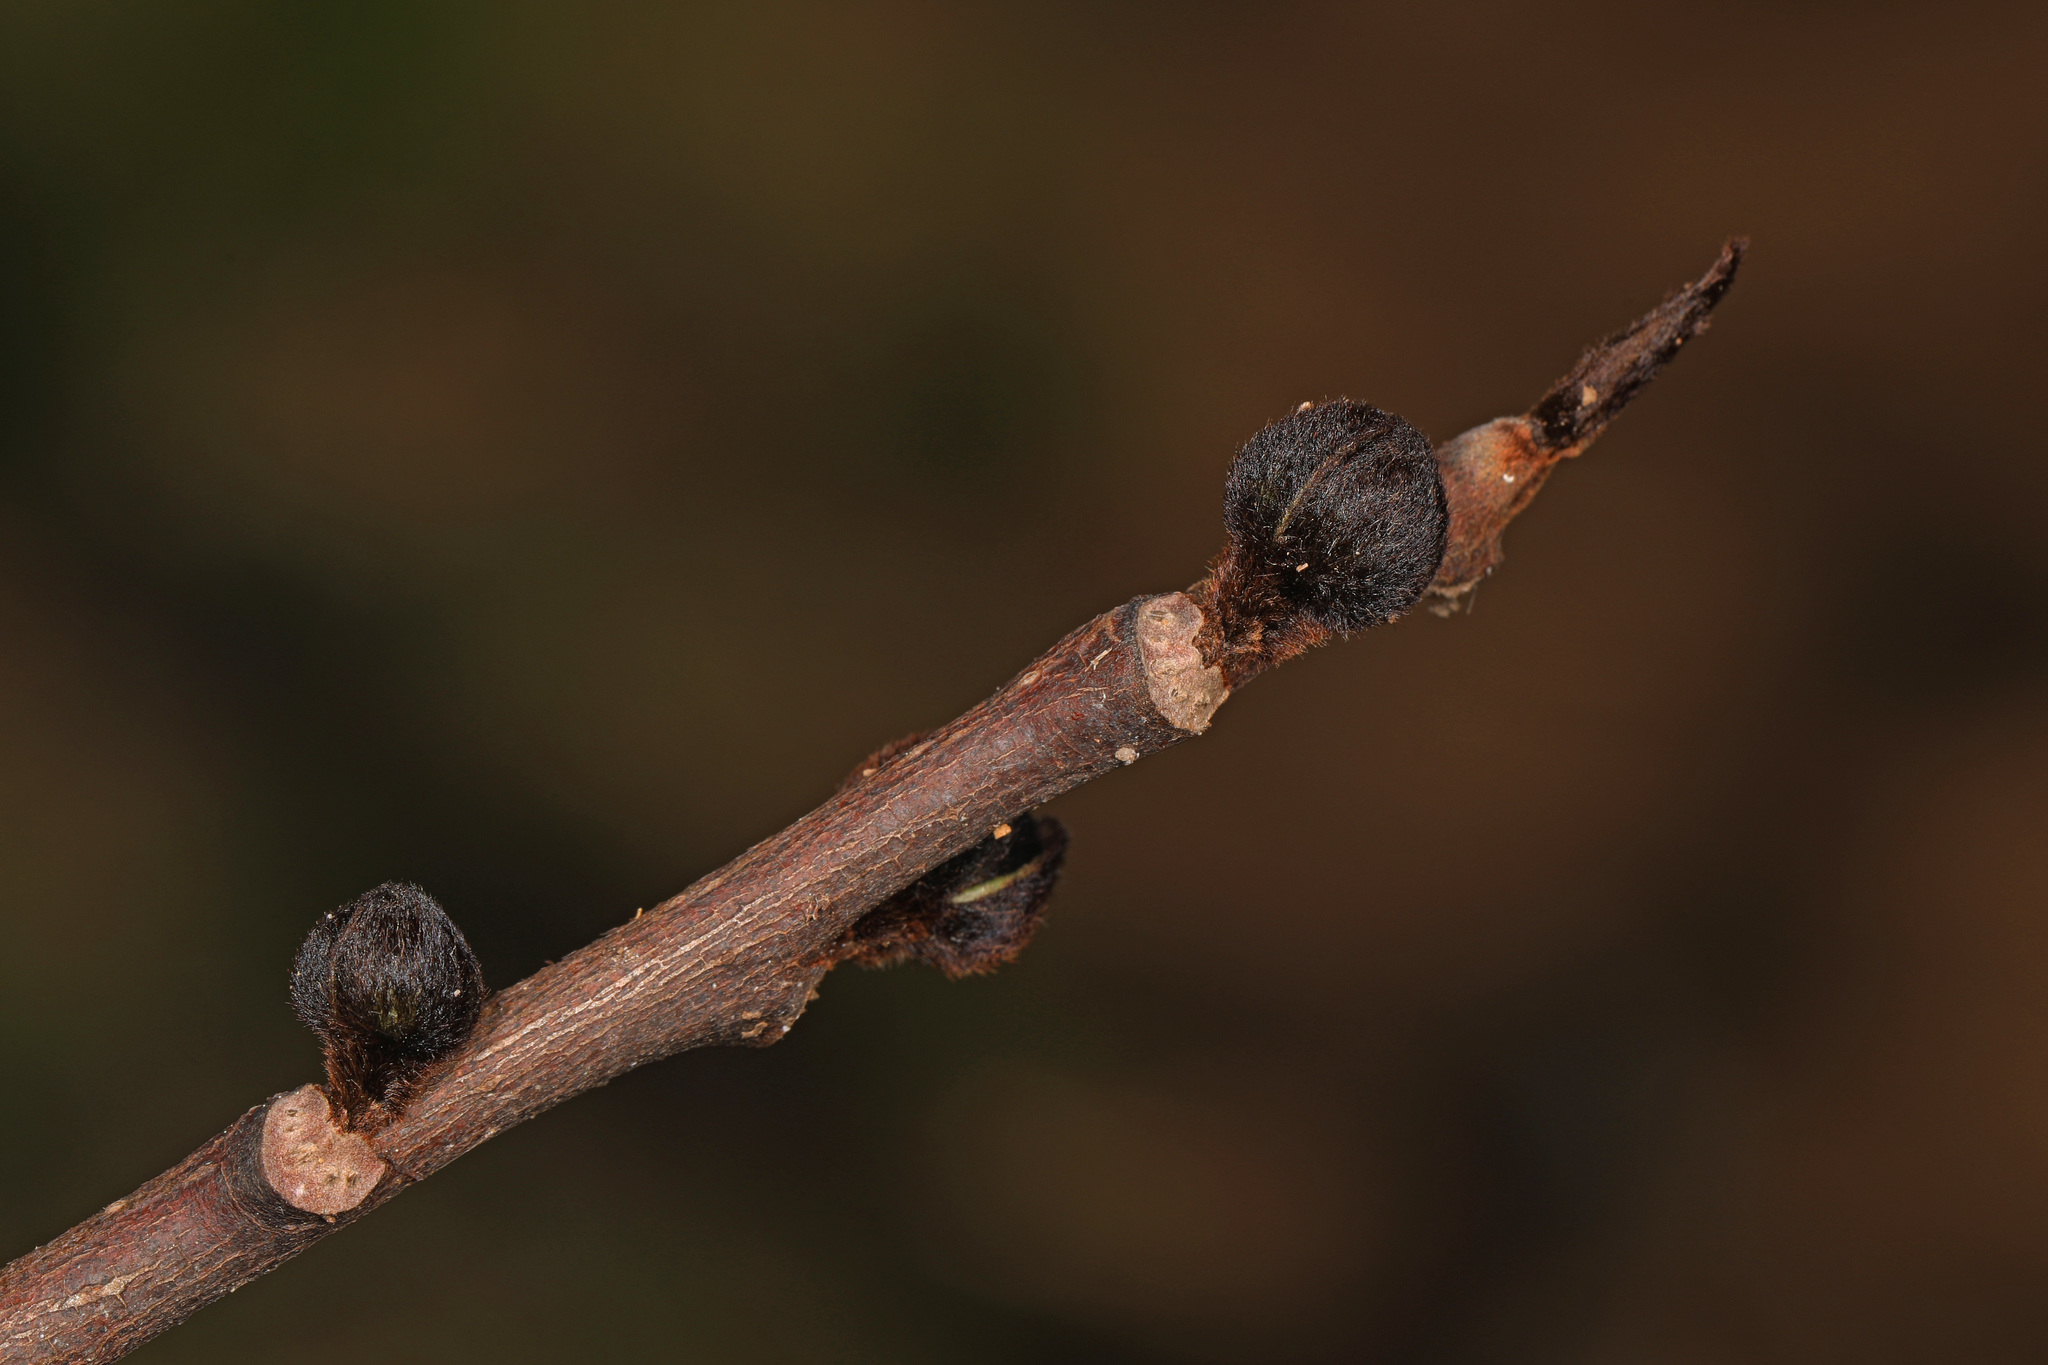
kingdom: Plantae
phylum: Tracheophyta
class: Magnoliopsida
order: Magnoliales
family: Annonaceae
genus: Asimina
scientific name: Asimina triloba
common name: Dog-banana
